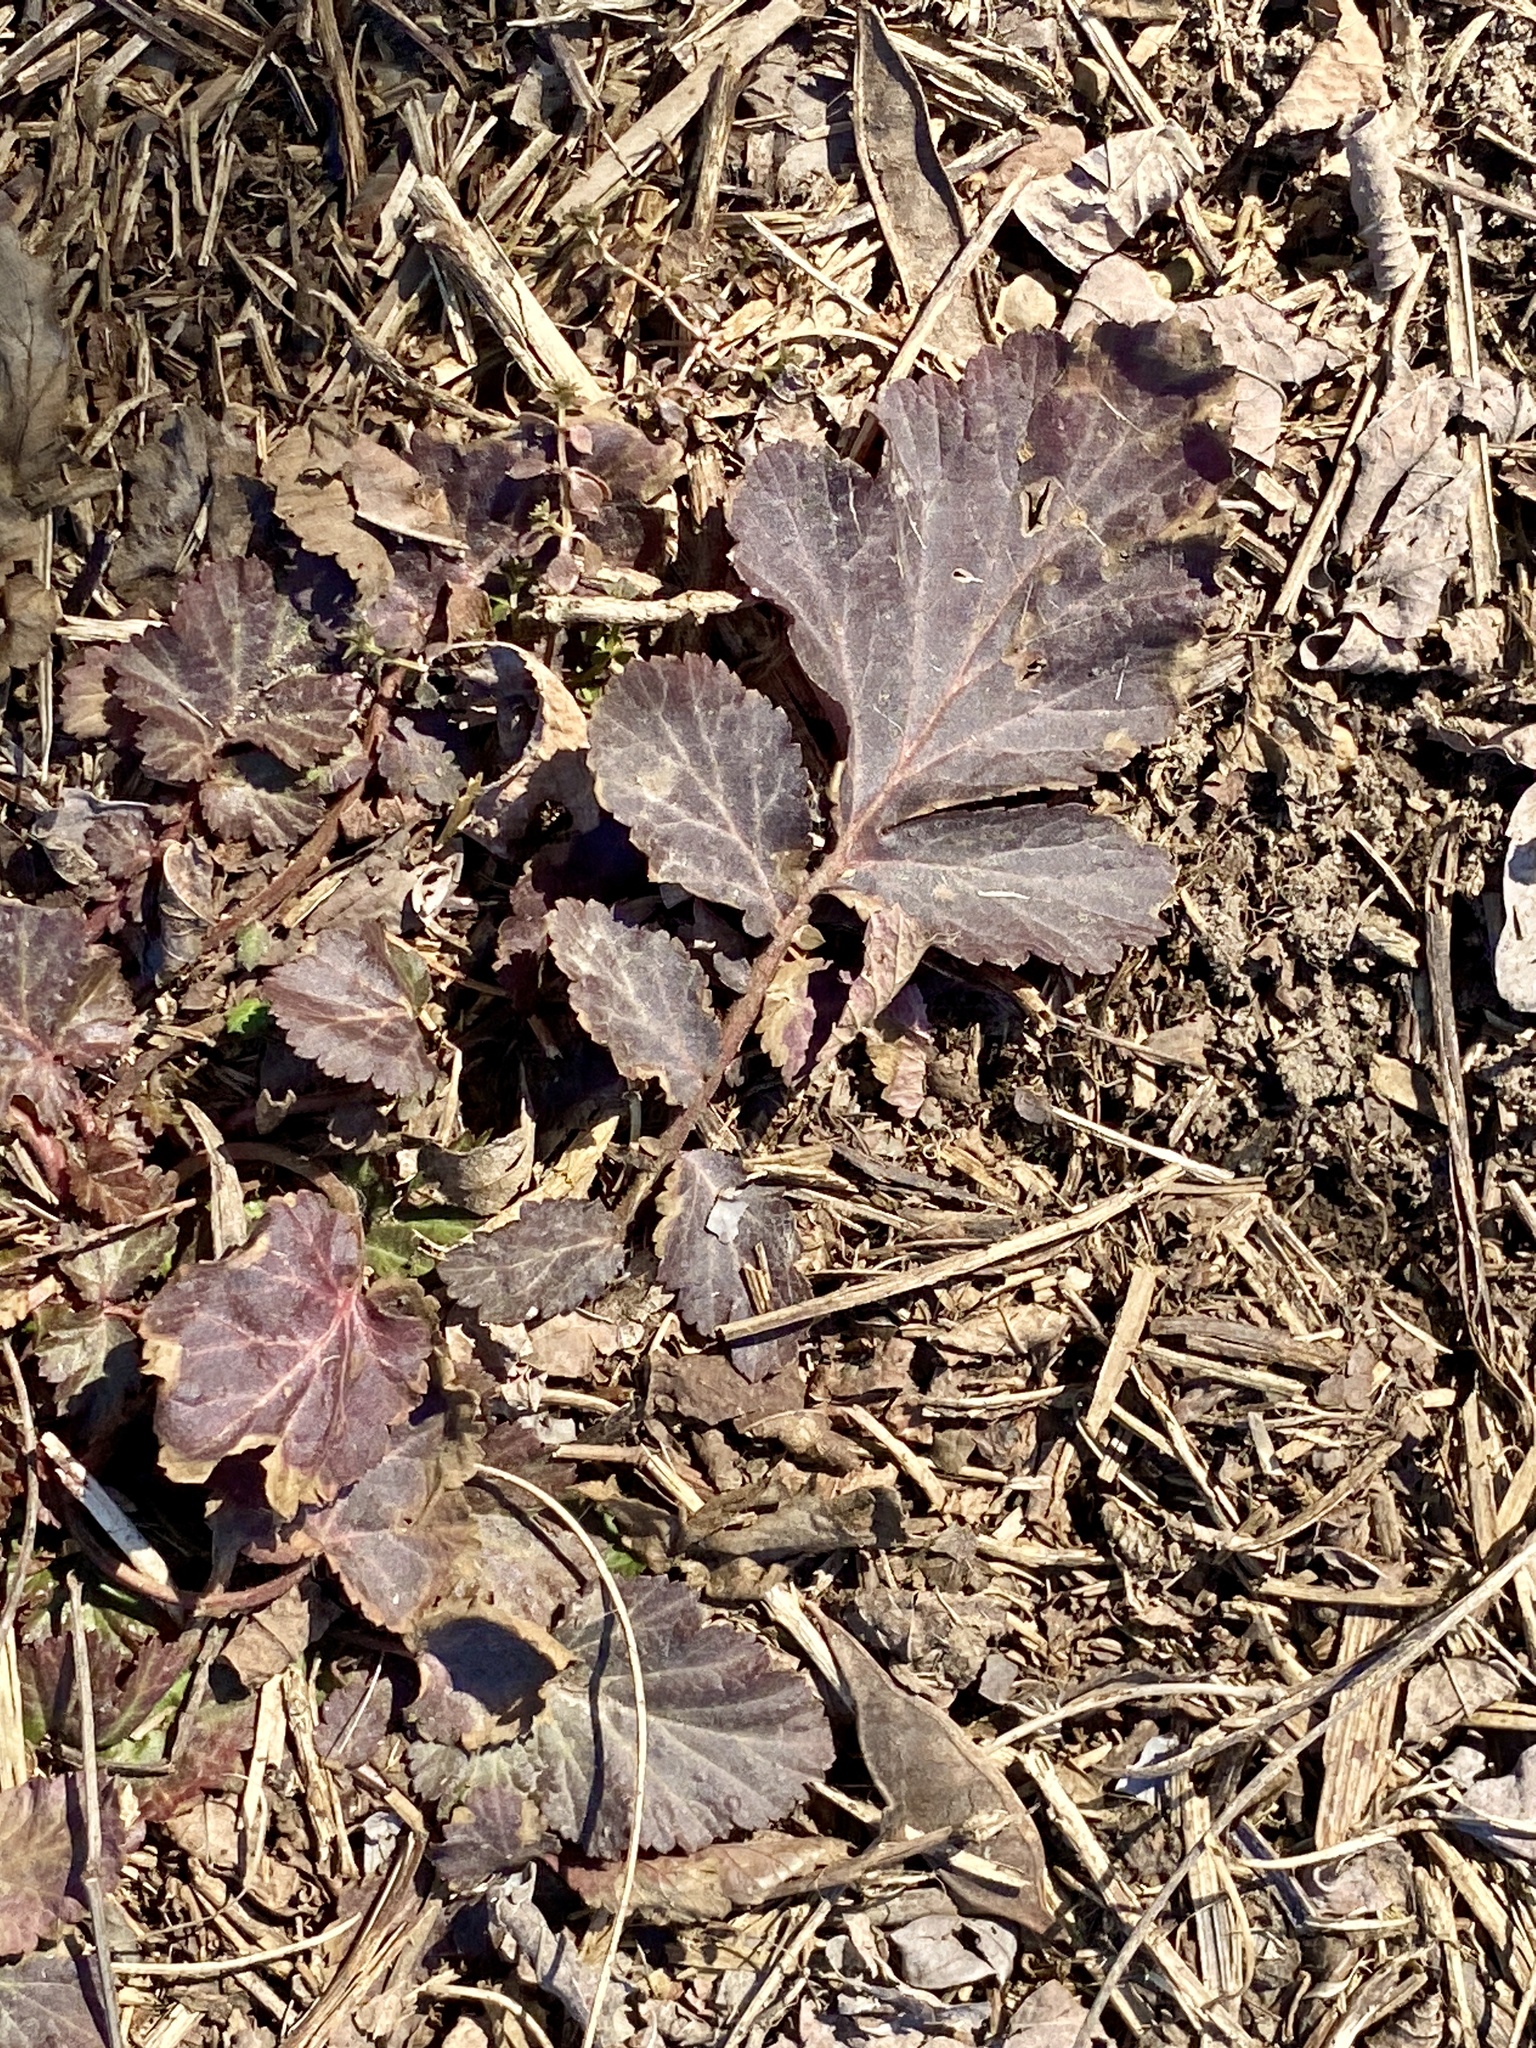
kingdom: Plantae
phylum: Tracheophyta
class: Magnoliopsida
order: Rosales
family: Rosaceae
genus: Geum
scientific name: Geum
